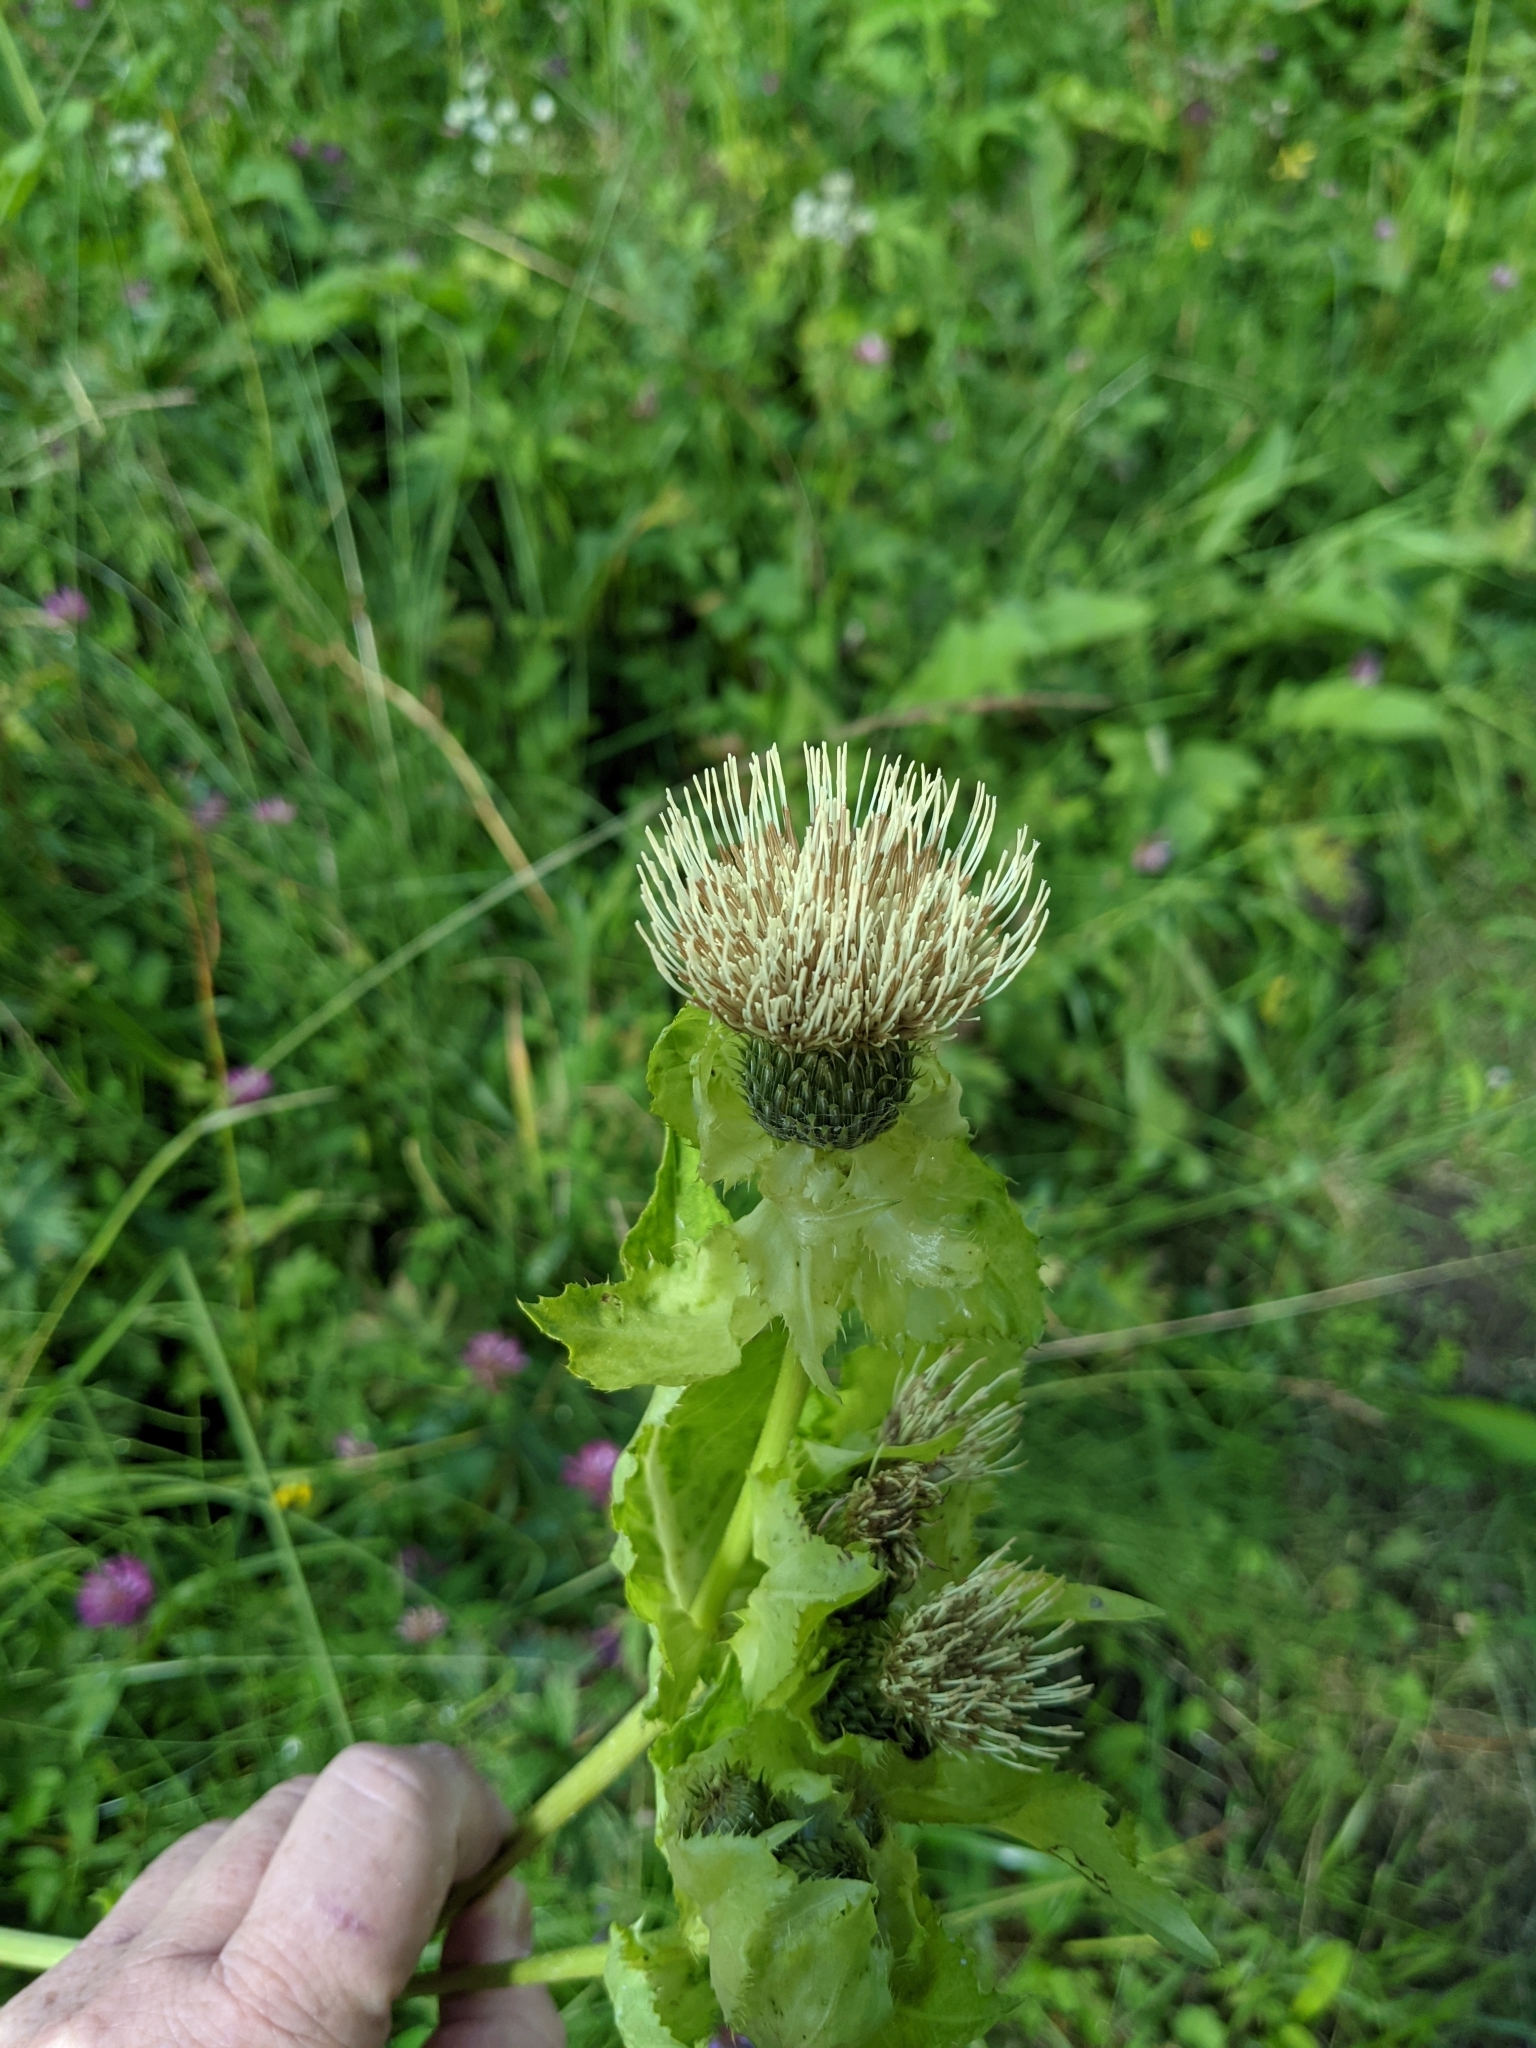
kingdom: Plantae
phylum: Tracheophyta
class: Magnoliopsida
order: Asterales
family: Asteraceae
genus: Cirsium
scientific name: Cirsium oleraceum
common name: Cabbage thistle
